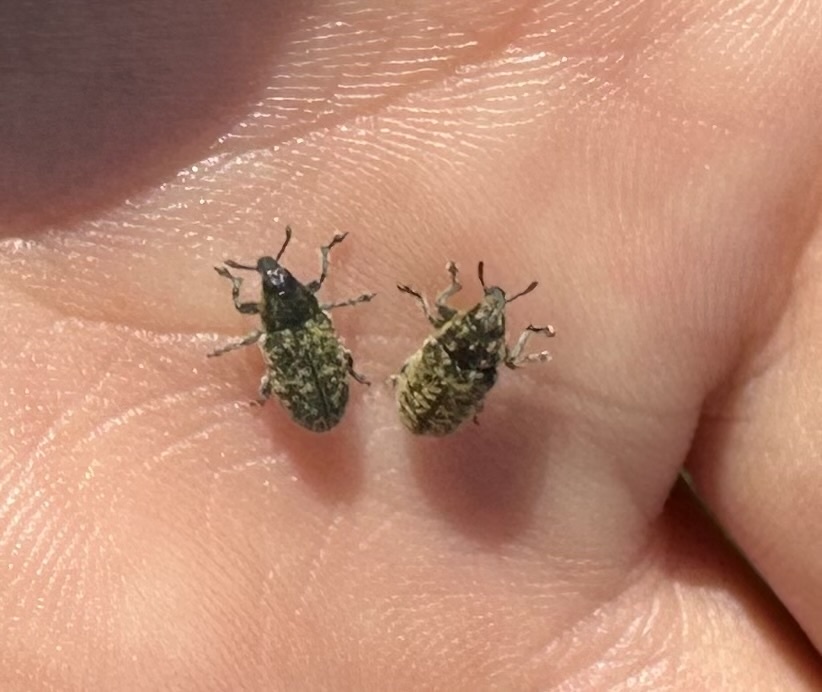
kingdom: Animalia
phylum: Arthropoda
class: Insecta
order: Coleoptera
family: Curculionidae
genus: Rhinocyllus
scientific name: Rhinocyllus conicus
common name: Weevil
